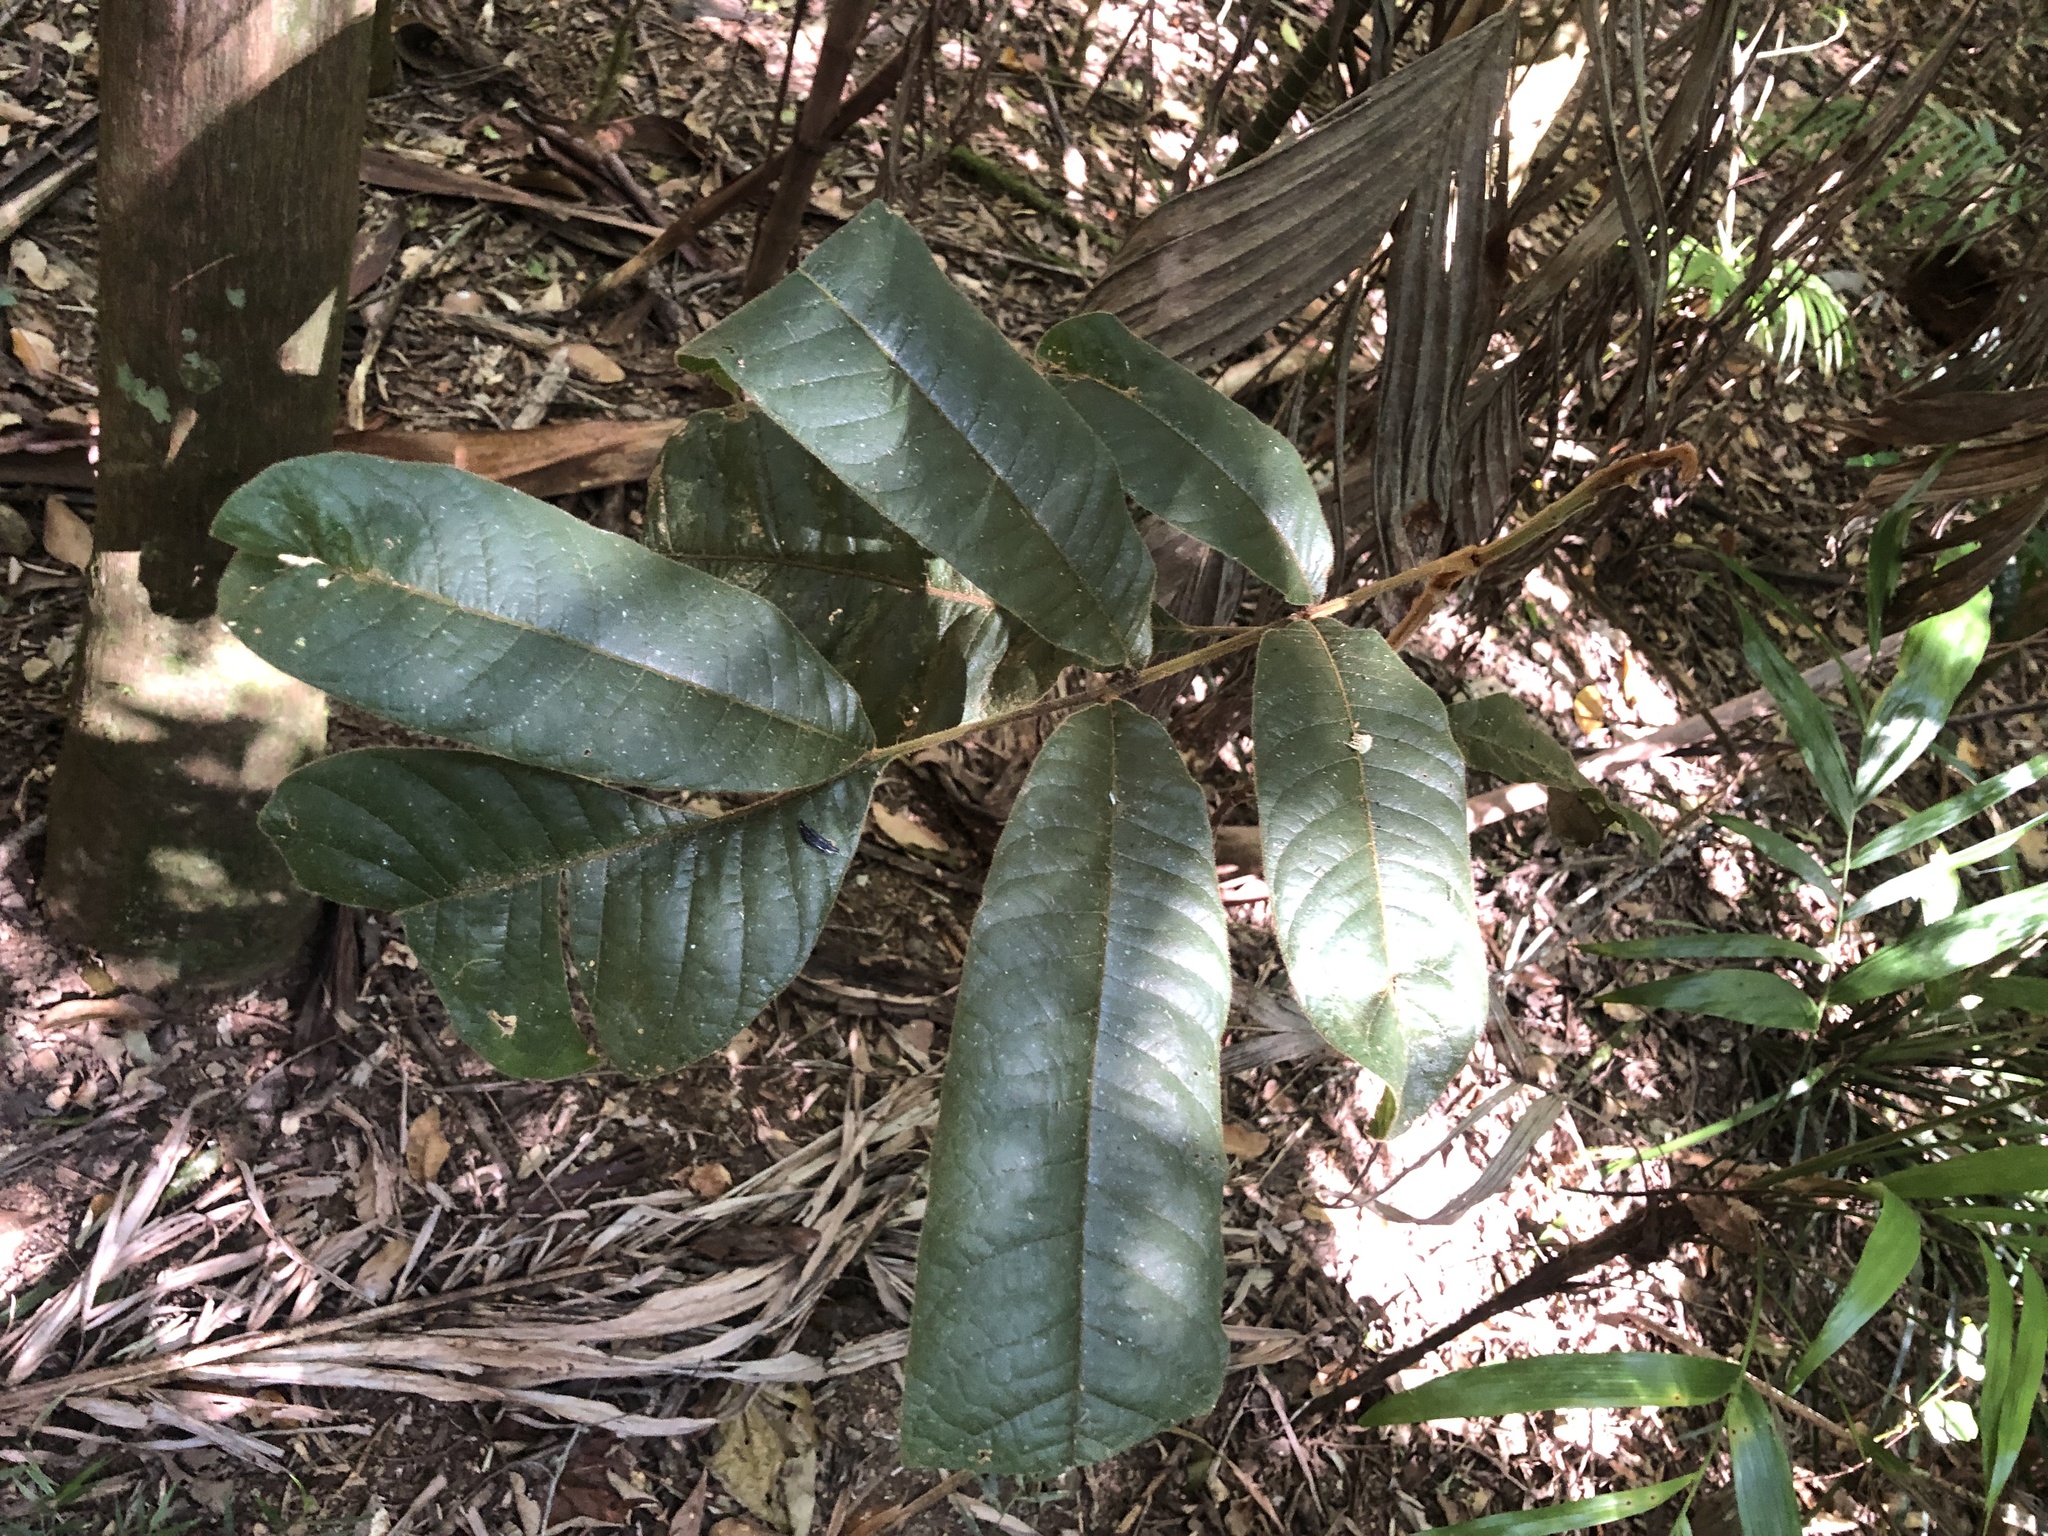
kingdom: Plantae
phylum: Tracheophyta
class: Magnoliopsida
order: Sapindales
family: Sapindaceae
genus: Diploglottis
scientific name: Diploglottis australis
